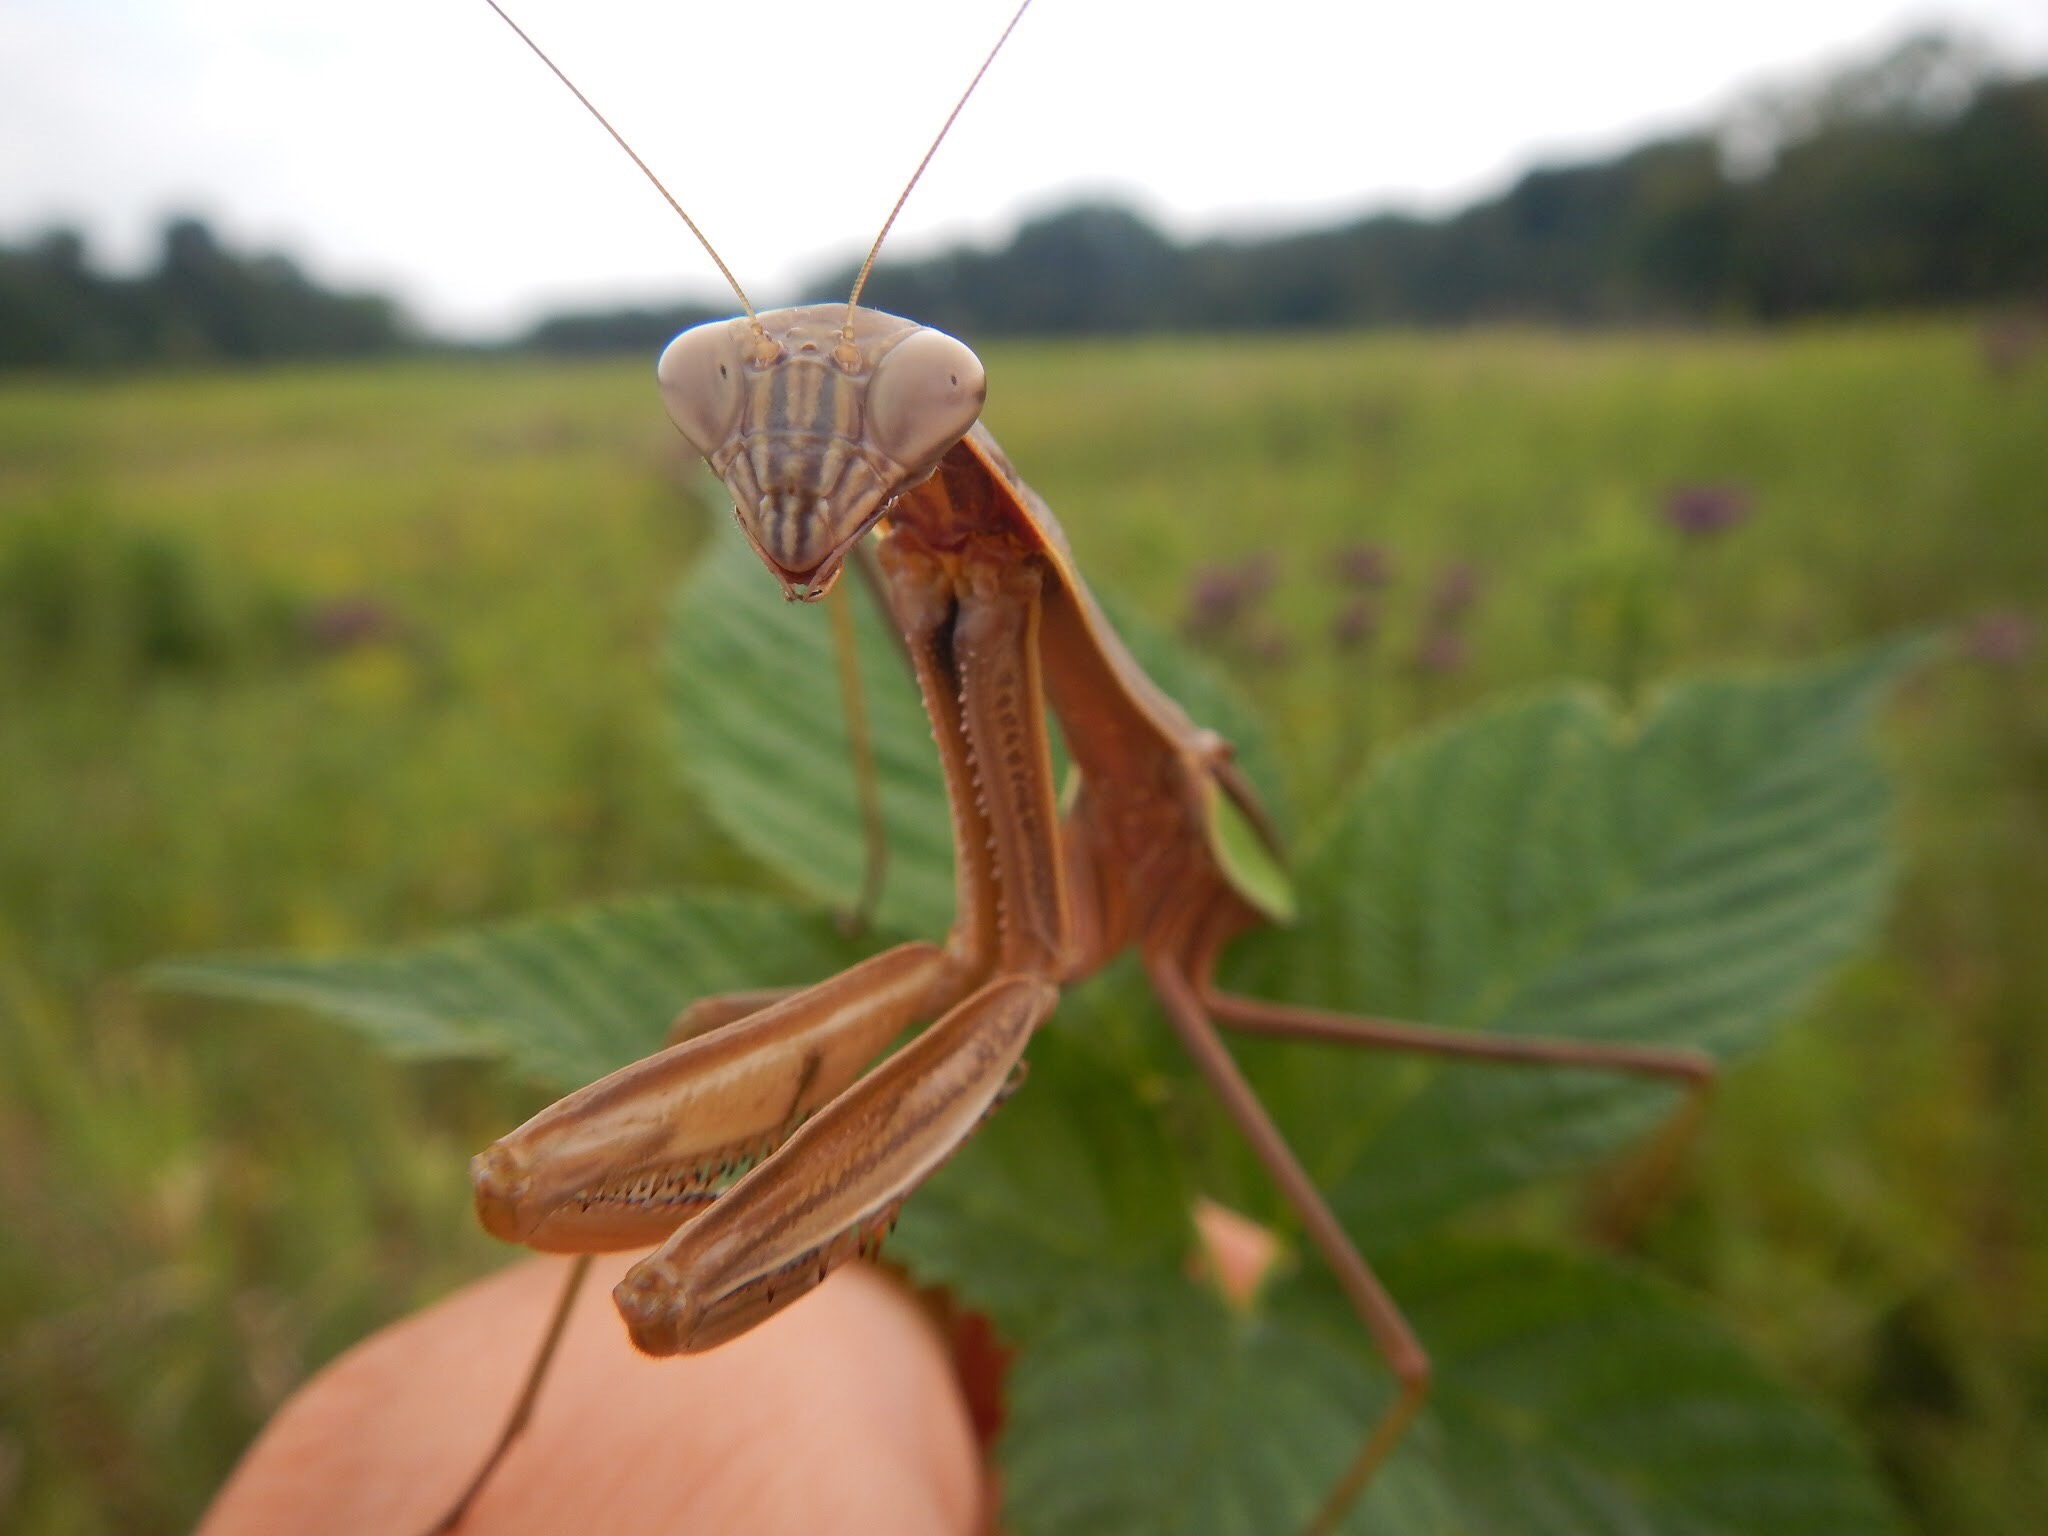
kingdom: Animalia
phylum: Arthropoda
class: Insecta
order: Mantodea
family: Mantidae
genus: Tenodera
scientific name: Tenodera sinensis
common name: Chinese mantis
